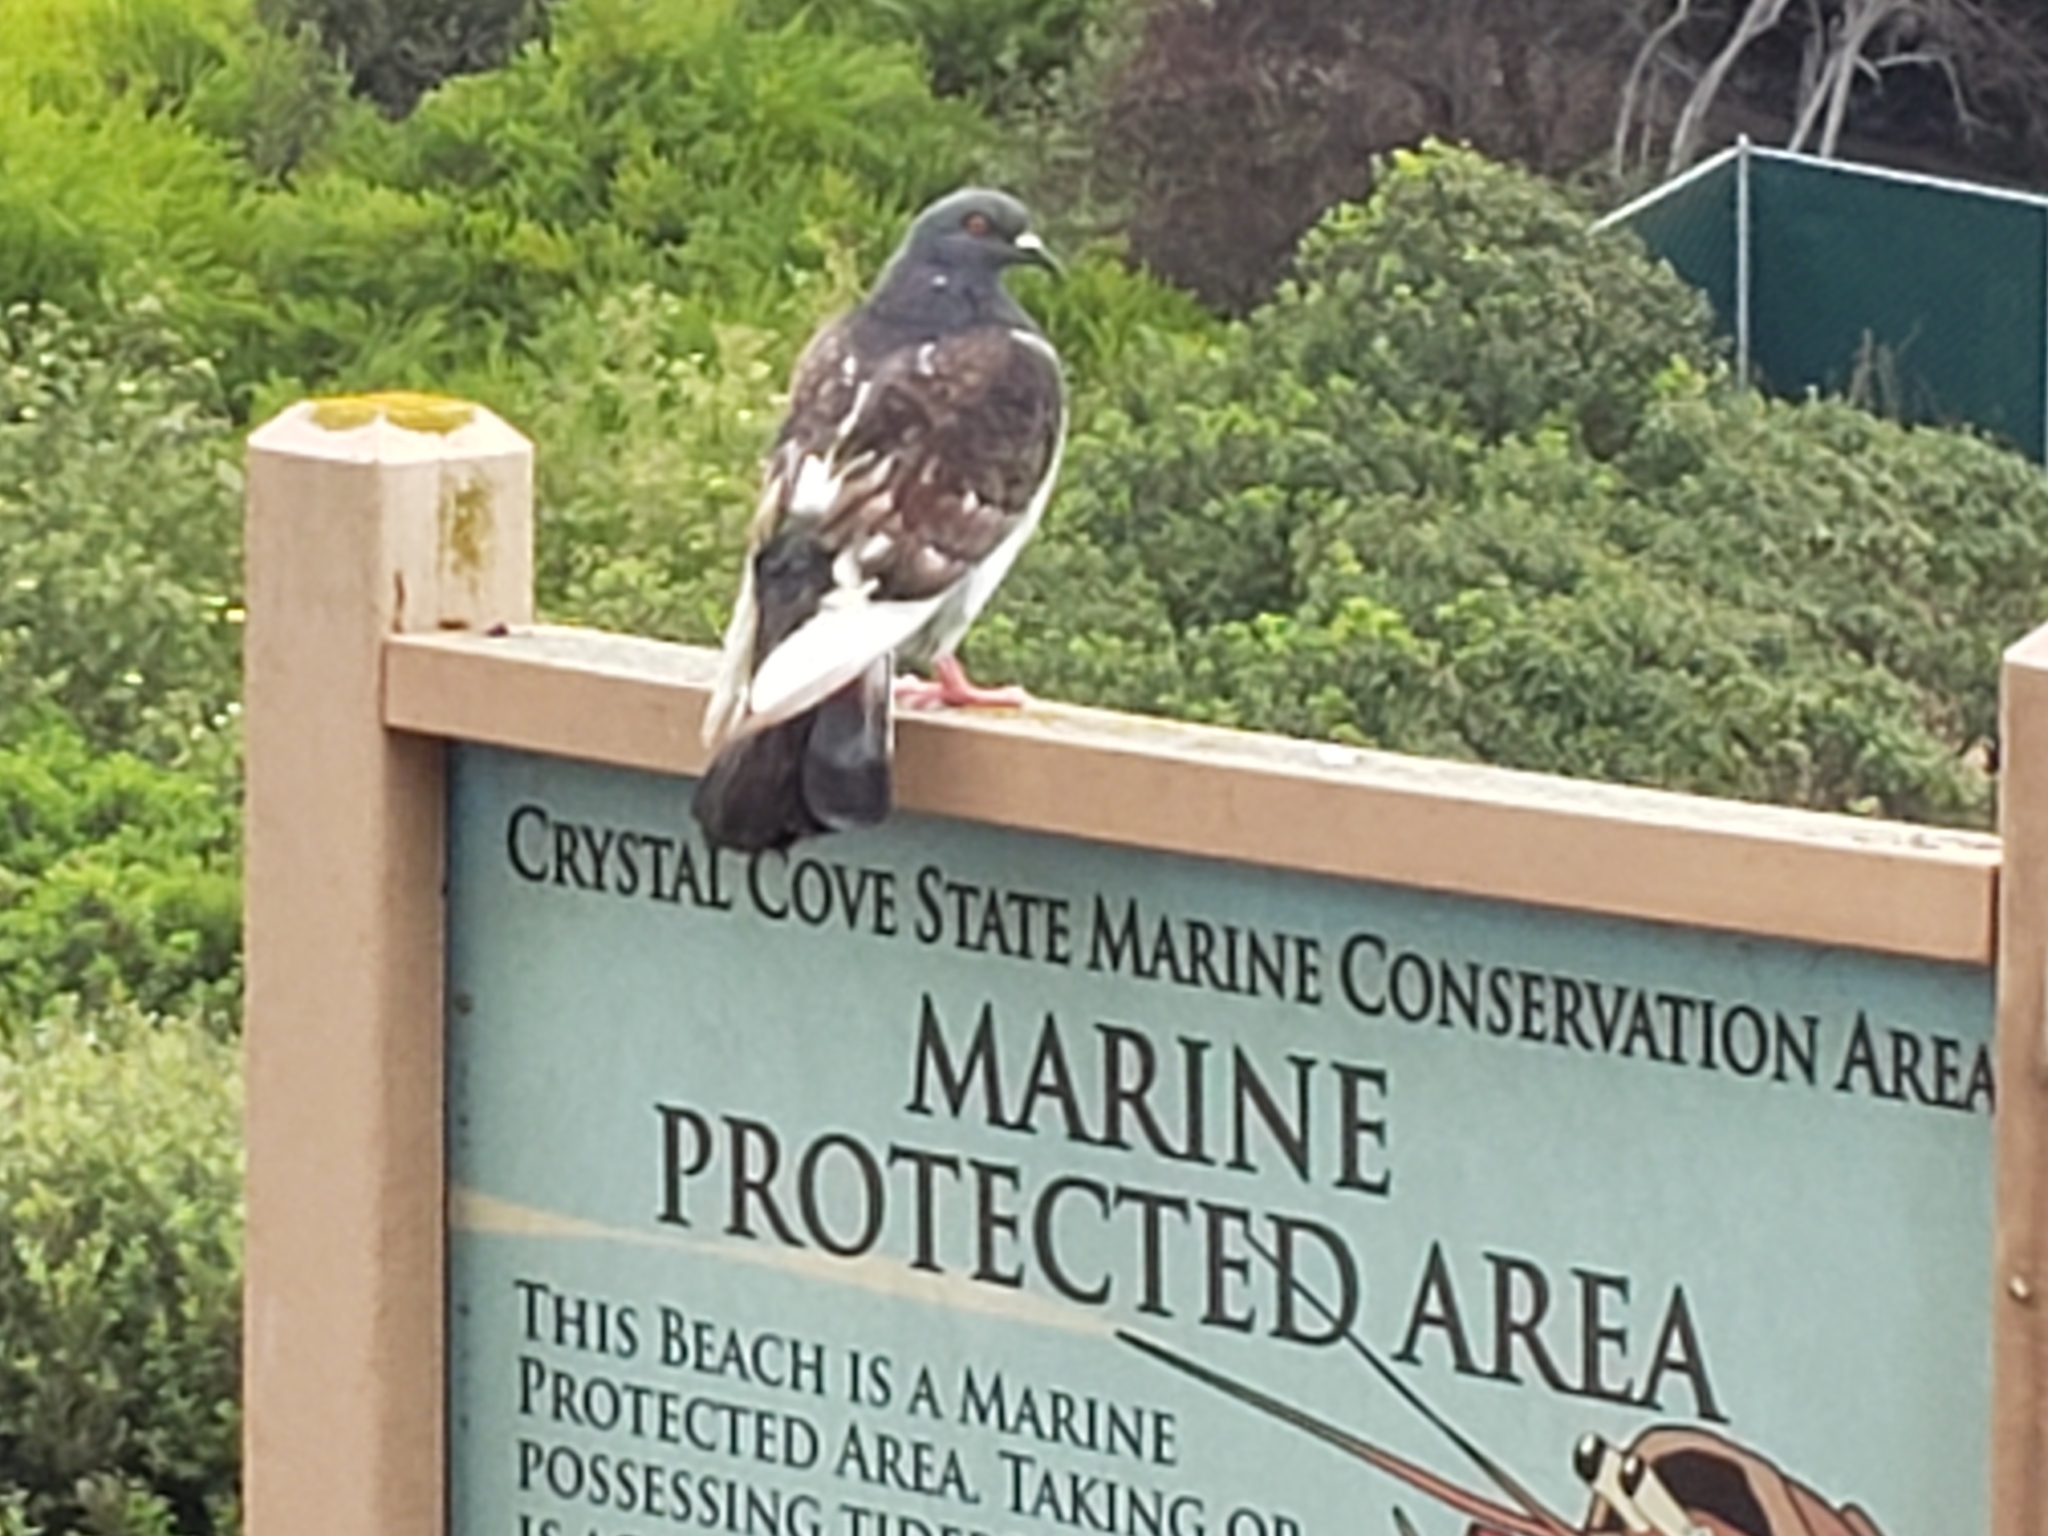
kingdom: Animalia
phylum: Chordata
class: Aves
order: Columbiformes
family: Columbidae
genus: Columba
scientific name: Columba livia
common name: Rock pigeon
